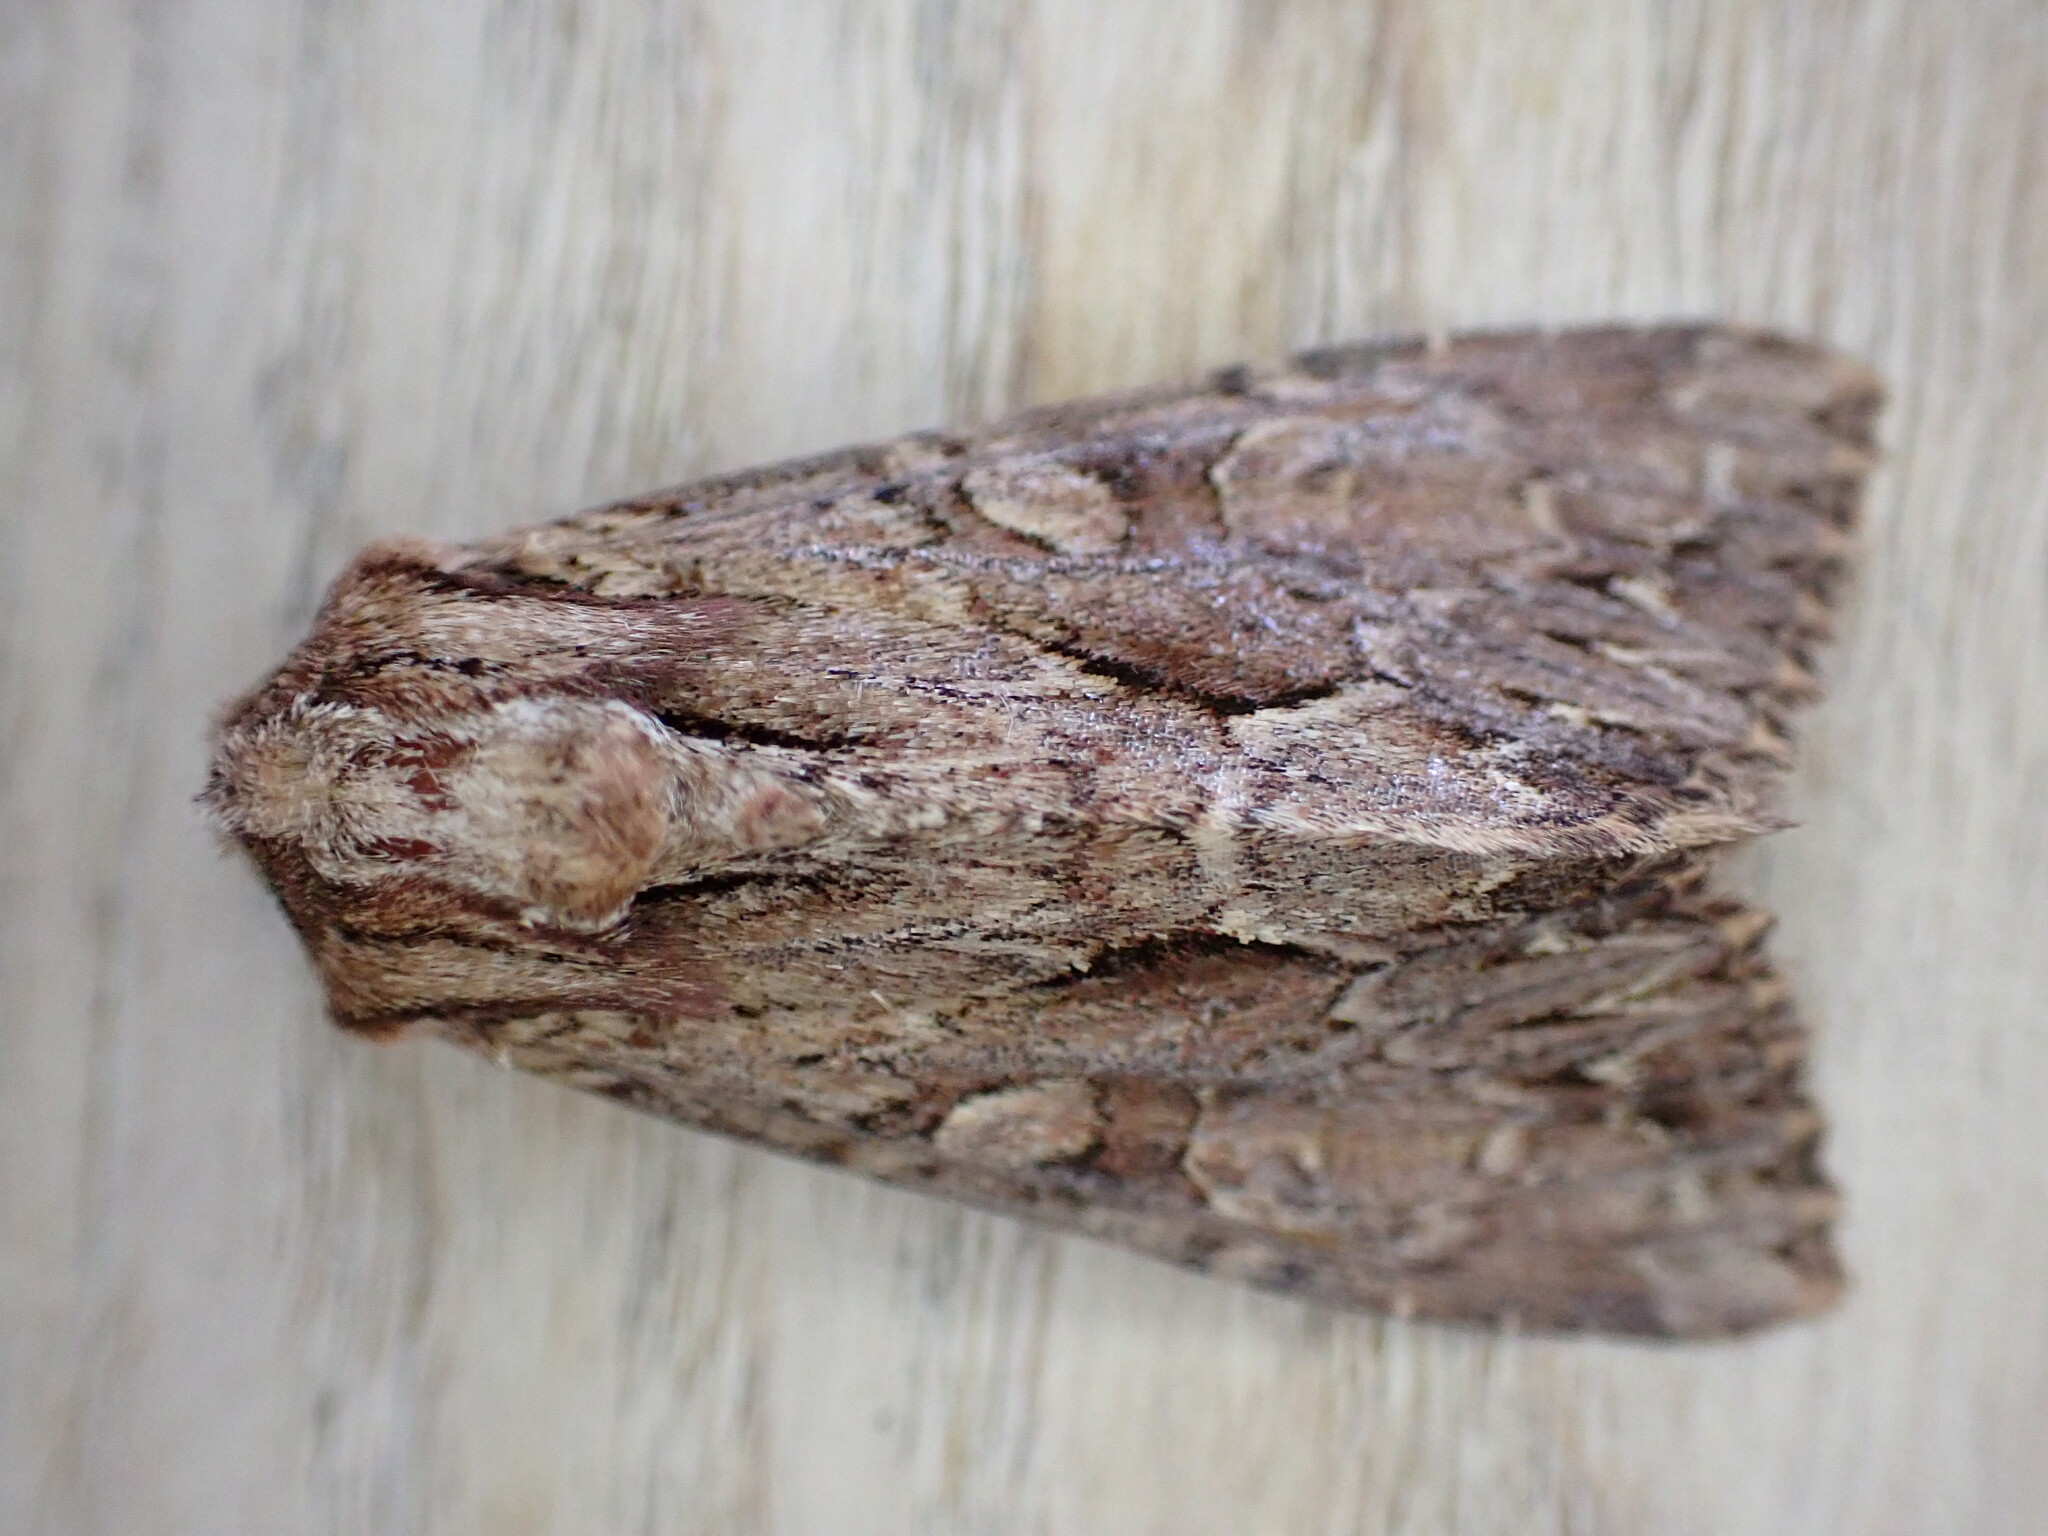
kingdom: Animalia
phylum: Arthropoda
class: Insecta
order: Lepidoptera
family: Noctuidae
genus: Apamea
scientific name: Apamea monoglypha
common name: Dark arches
